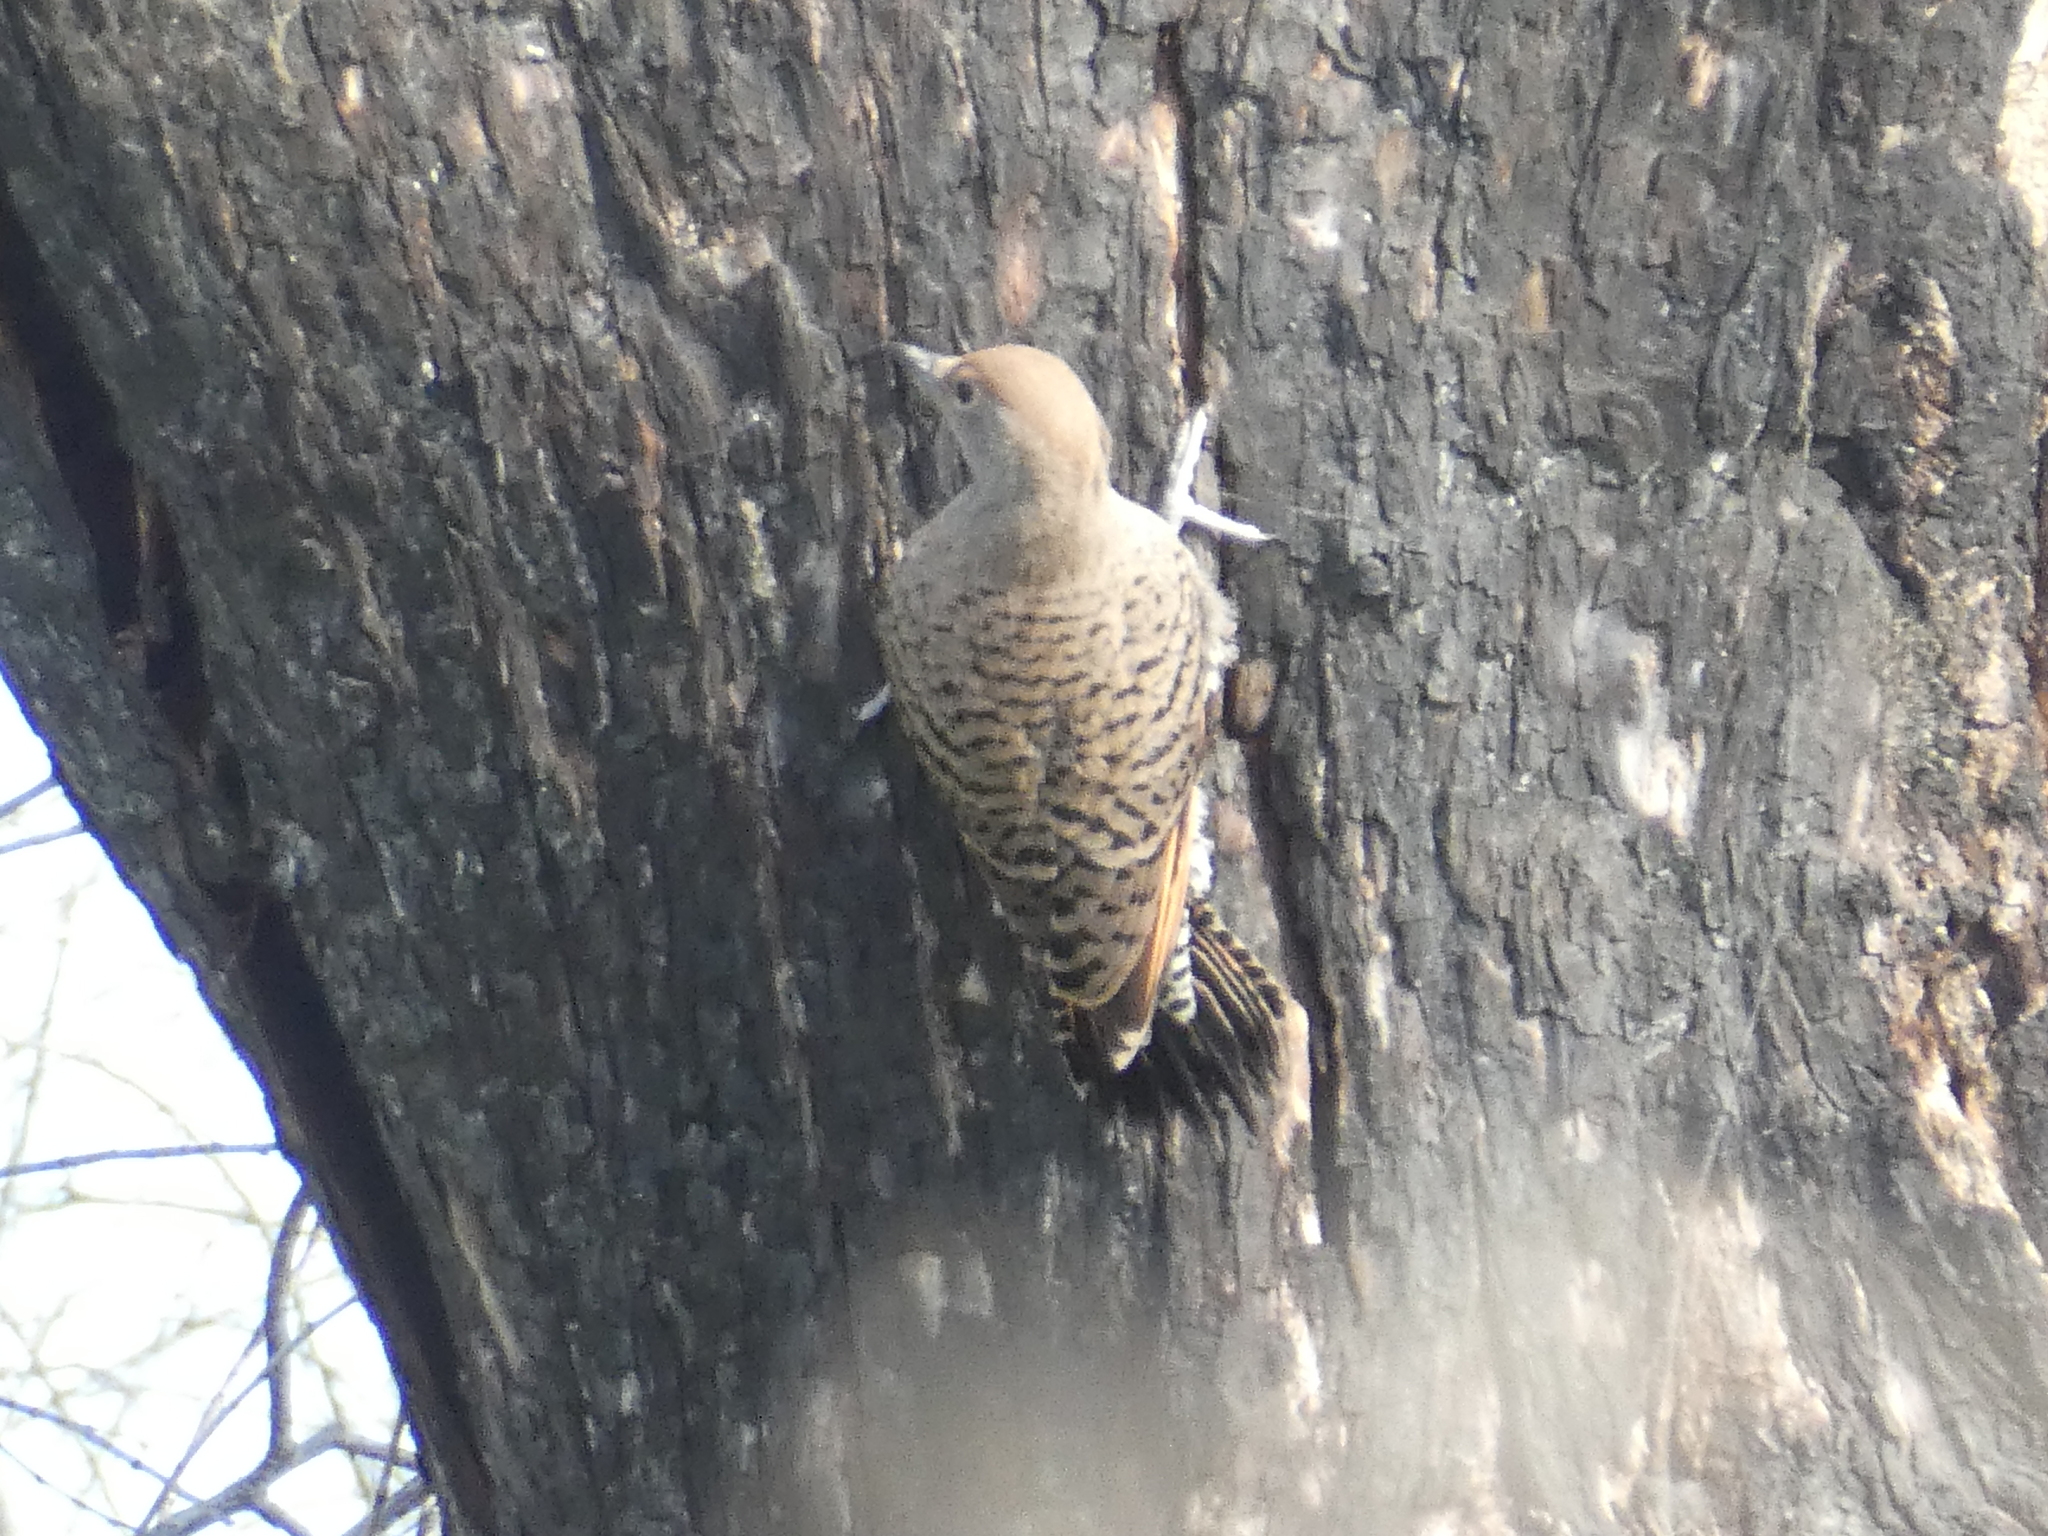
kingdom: Animalia
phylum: Chordata
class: Aves
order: Piciformes
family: Picidae
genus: Colaptes
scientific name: Colaptes auratus
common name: Northern flicker
